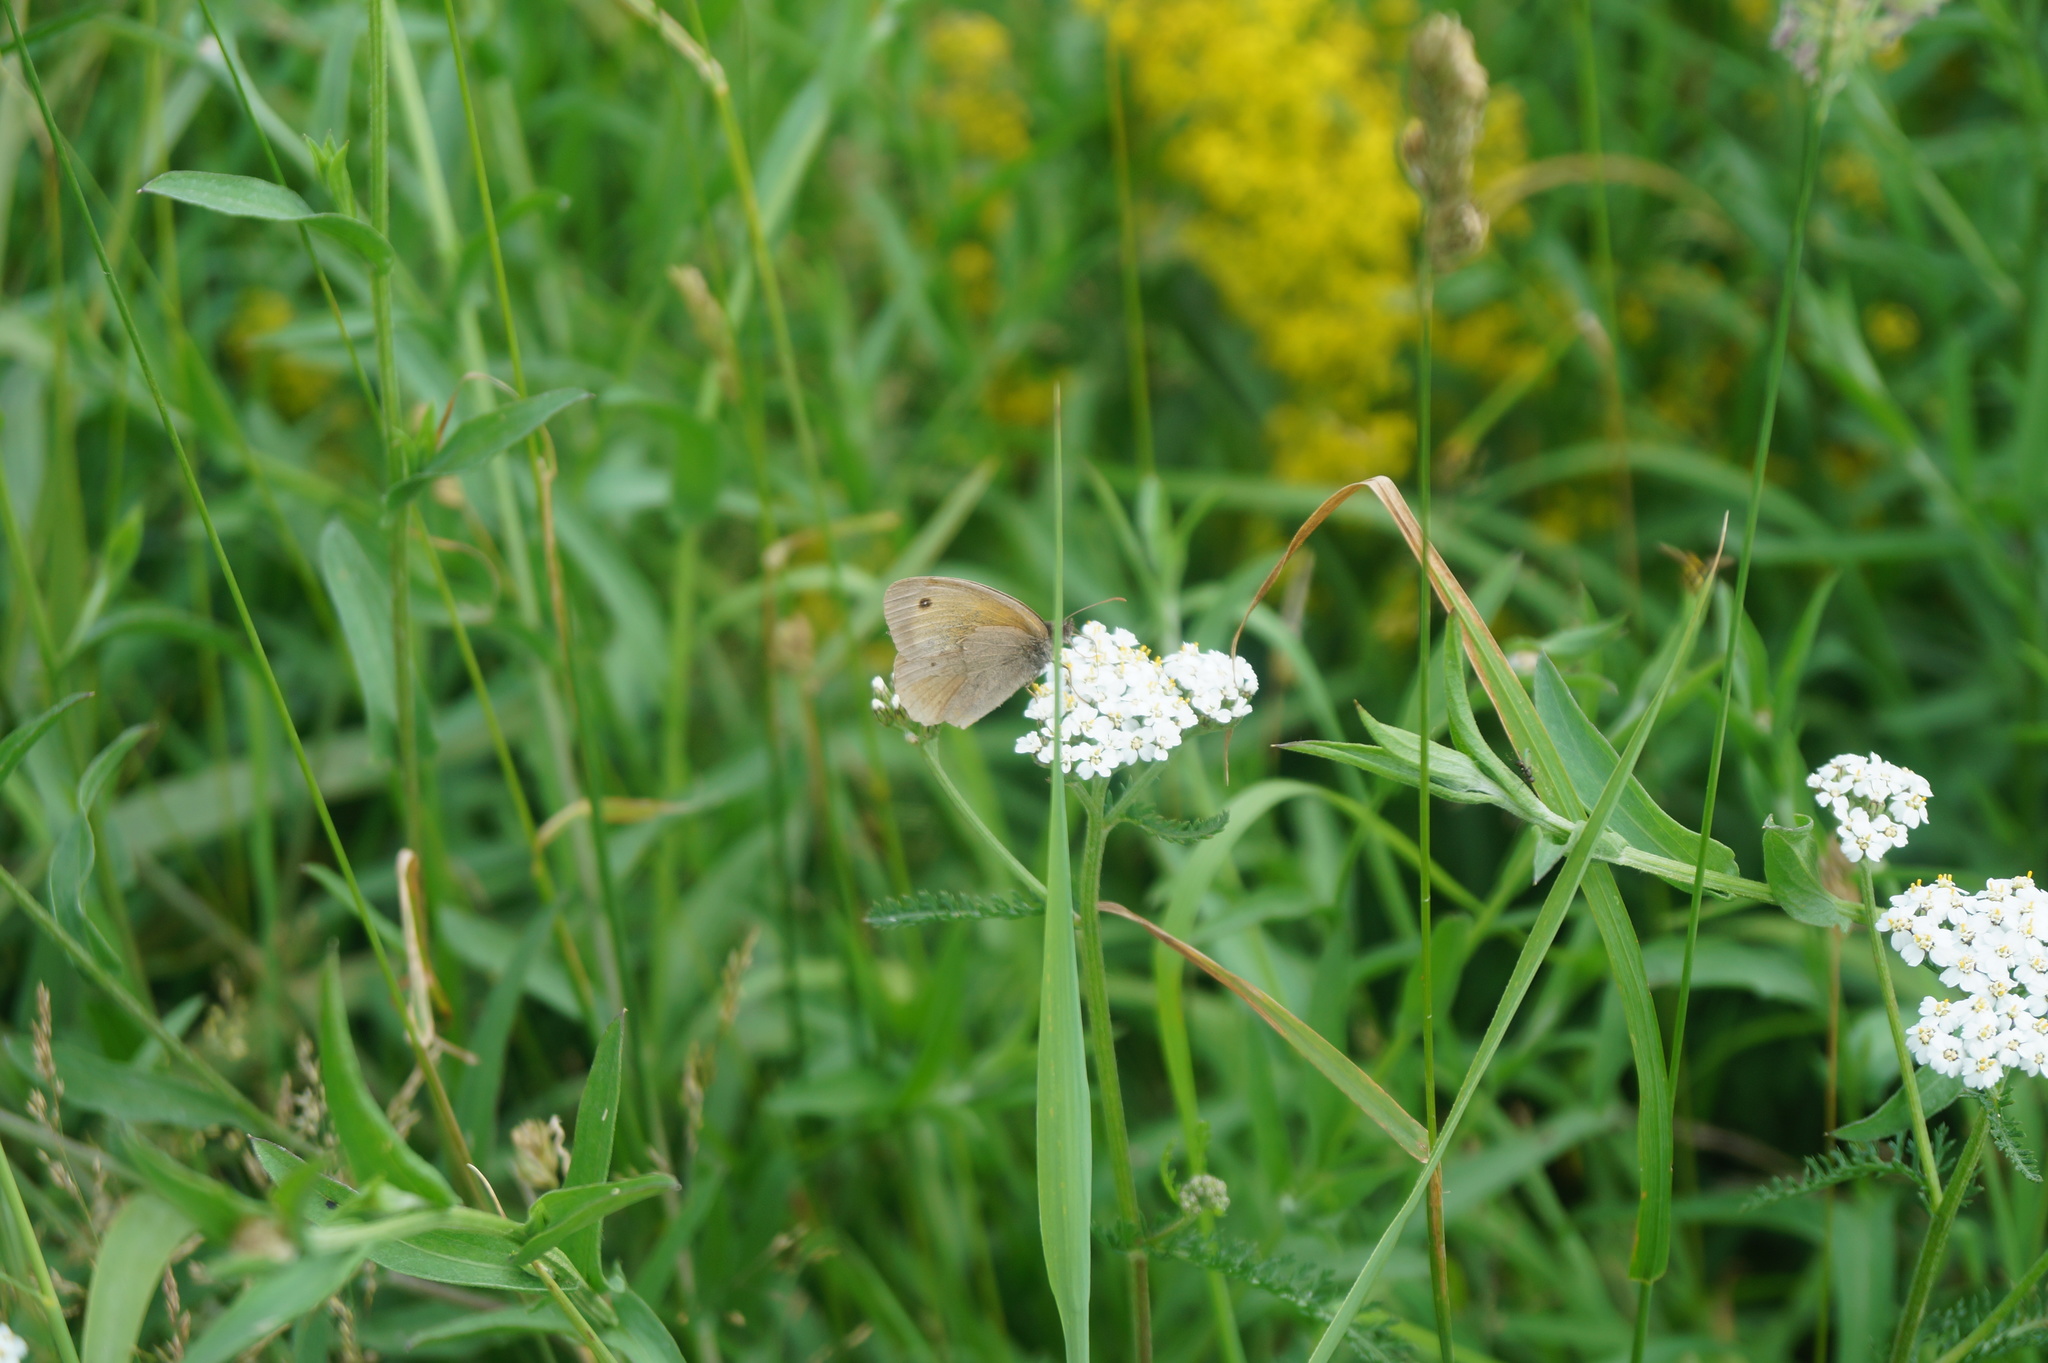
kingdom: Animalia
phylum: Arthropoda
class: Insecta
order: Lepidoptera
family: Nymphalidae
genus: Maniola
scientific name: Maniola jurtina
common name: Meadow brown
